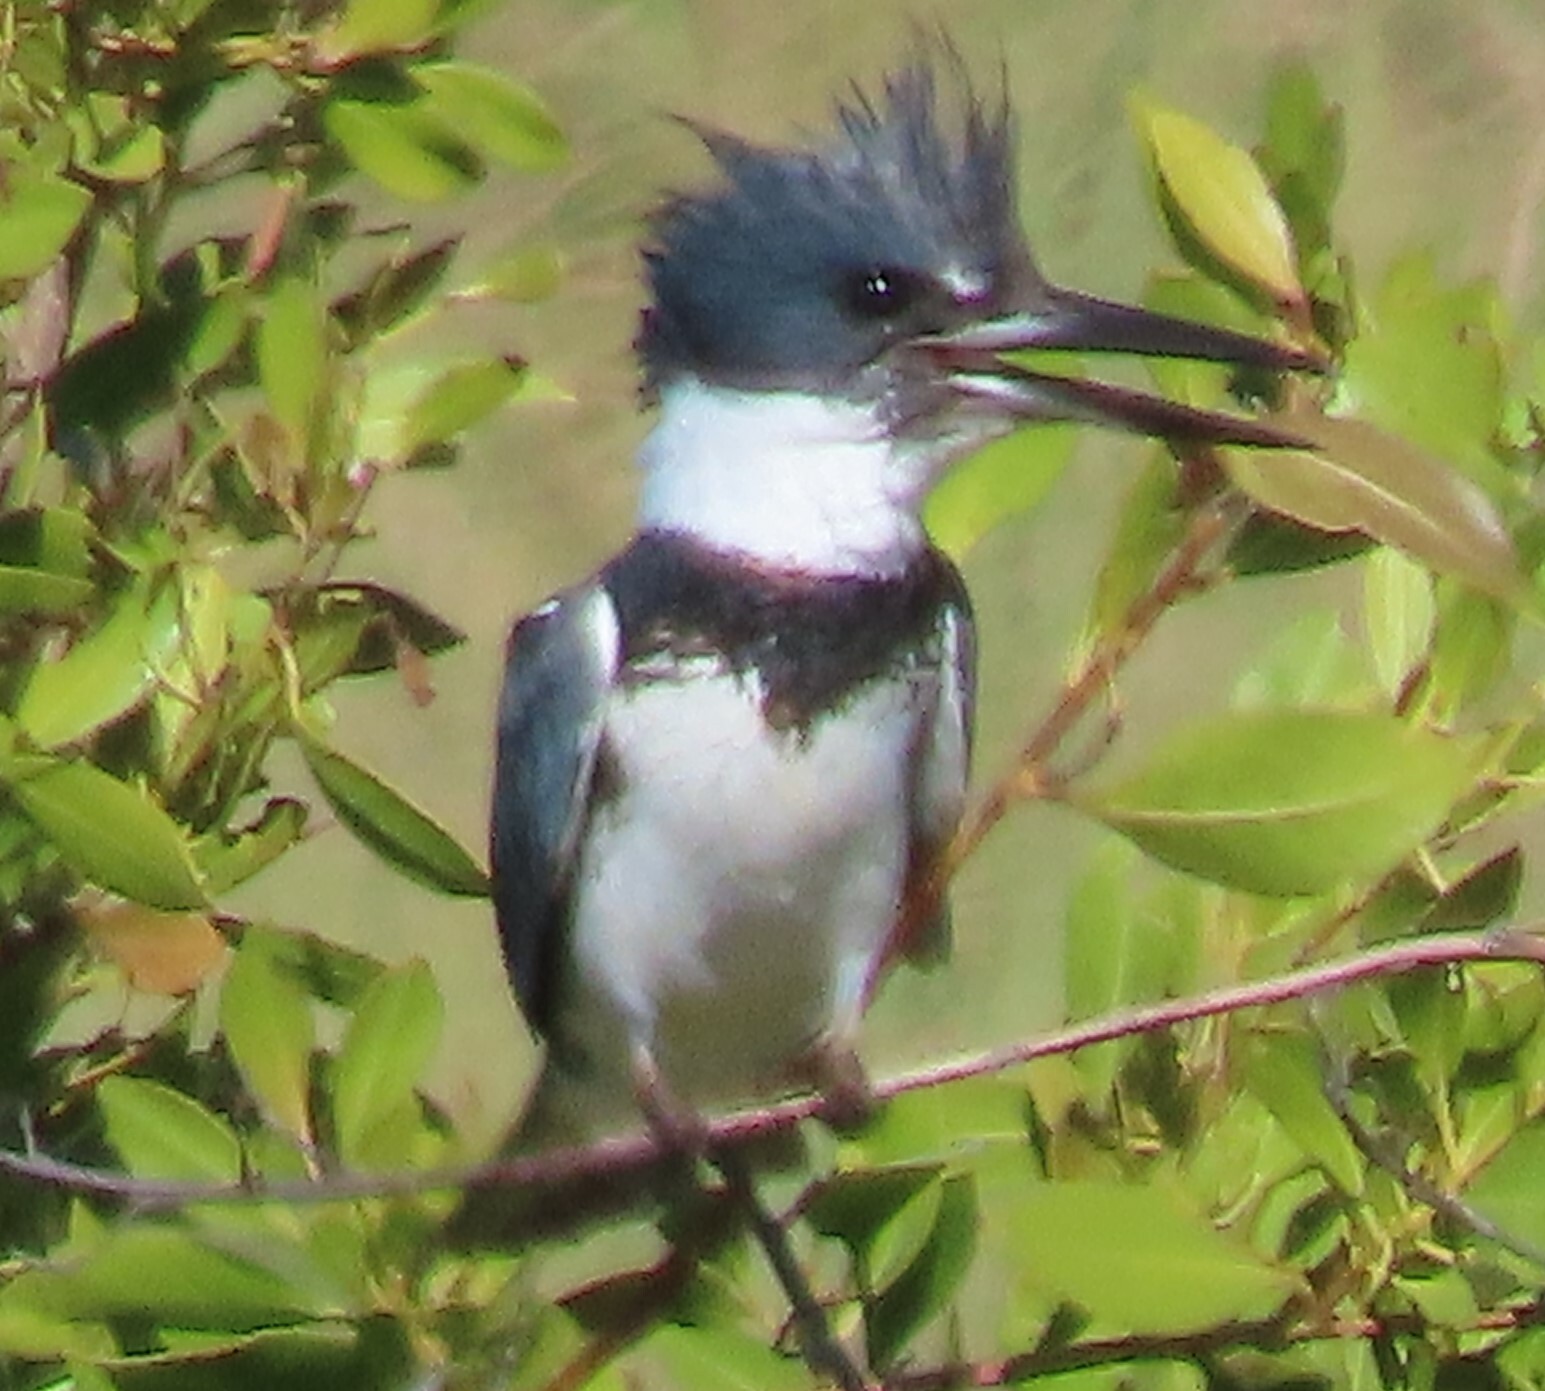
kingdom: Animalia
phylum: Chordata
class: Aves
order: Coraciiformes
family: Alcedinidae
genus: Megaceryle
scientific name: Megaceryle alcyon
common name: Belted kingfisher
